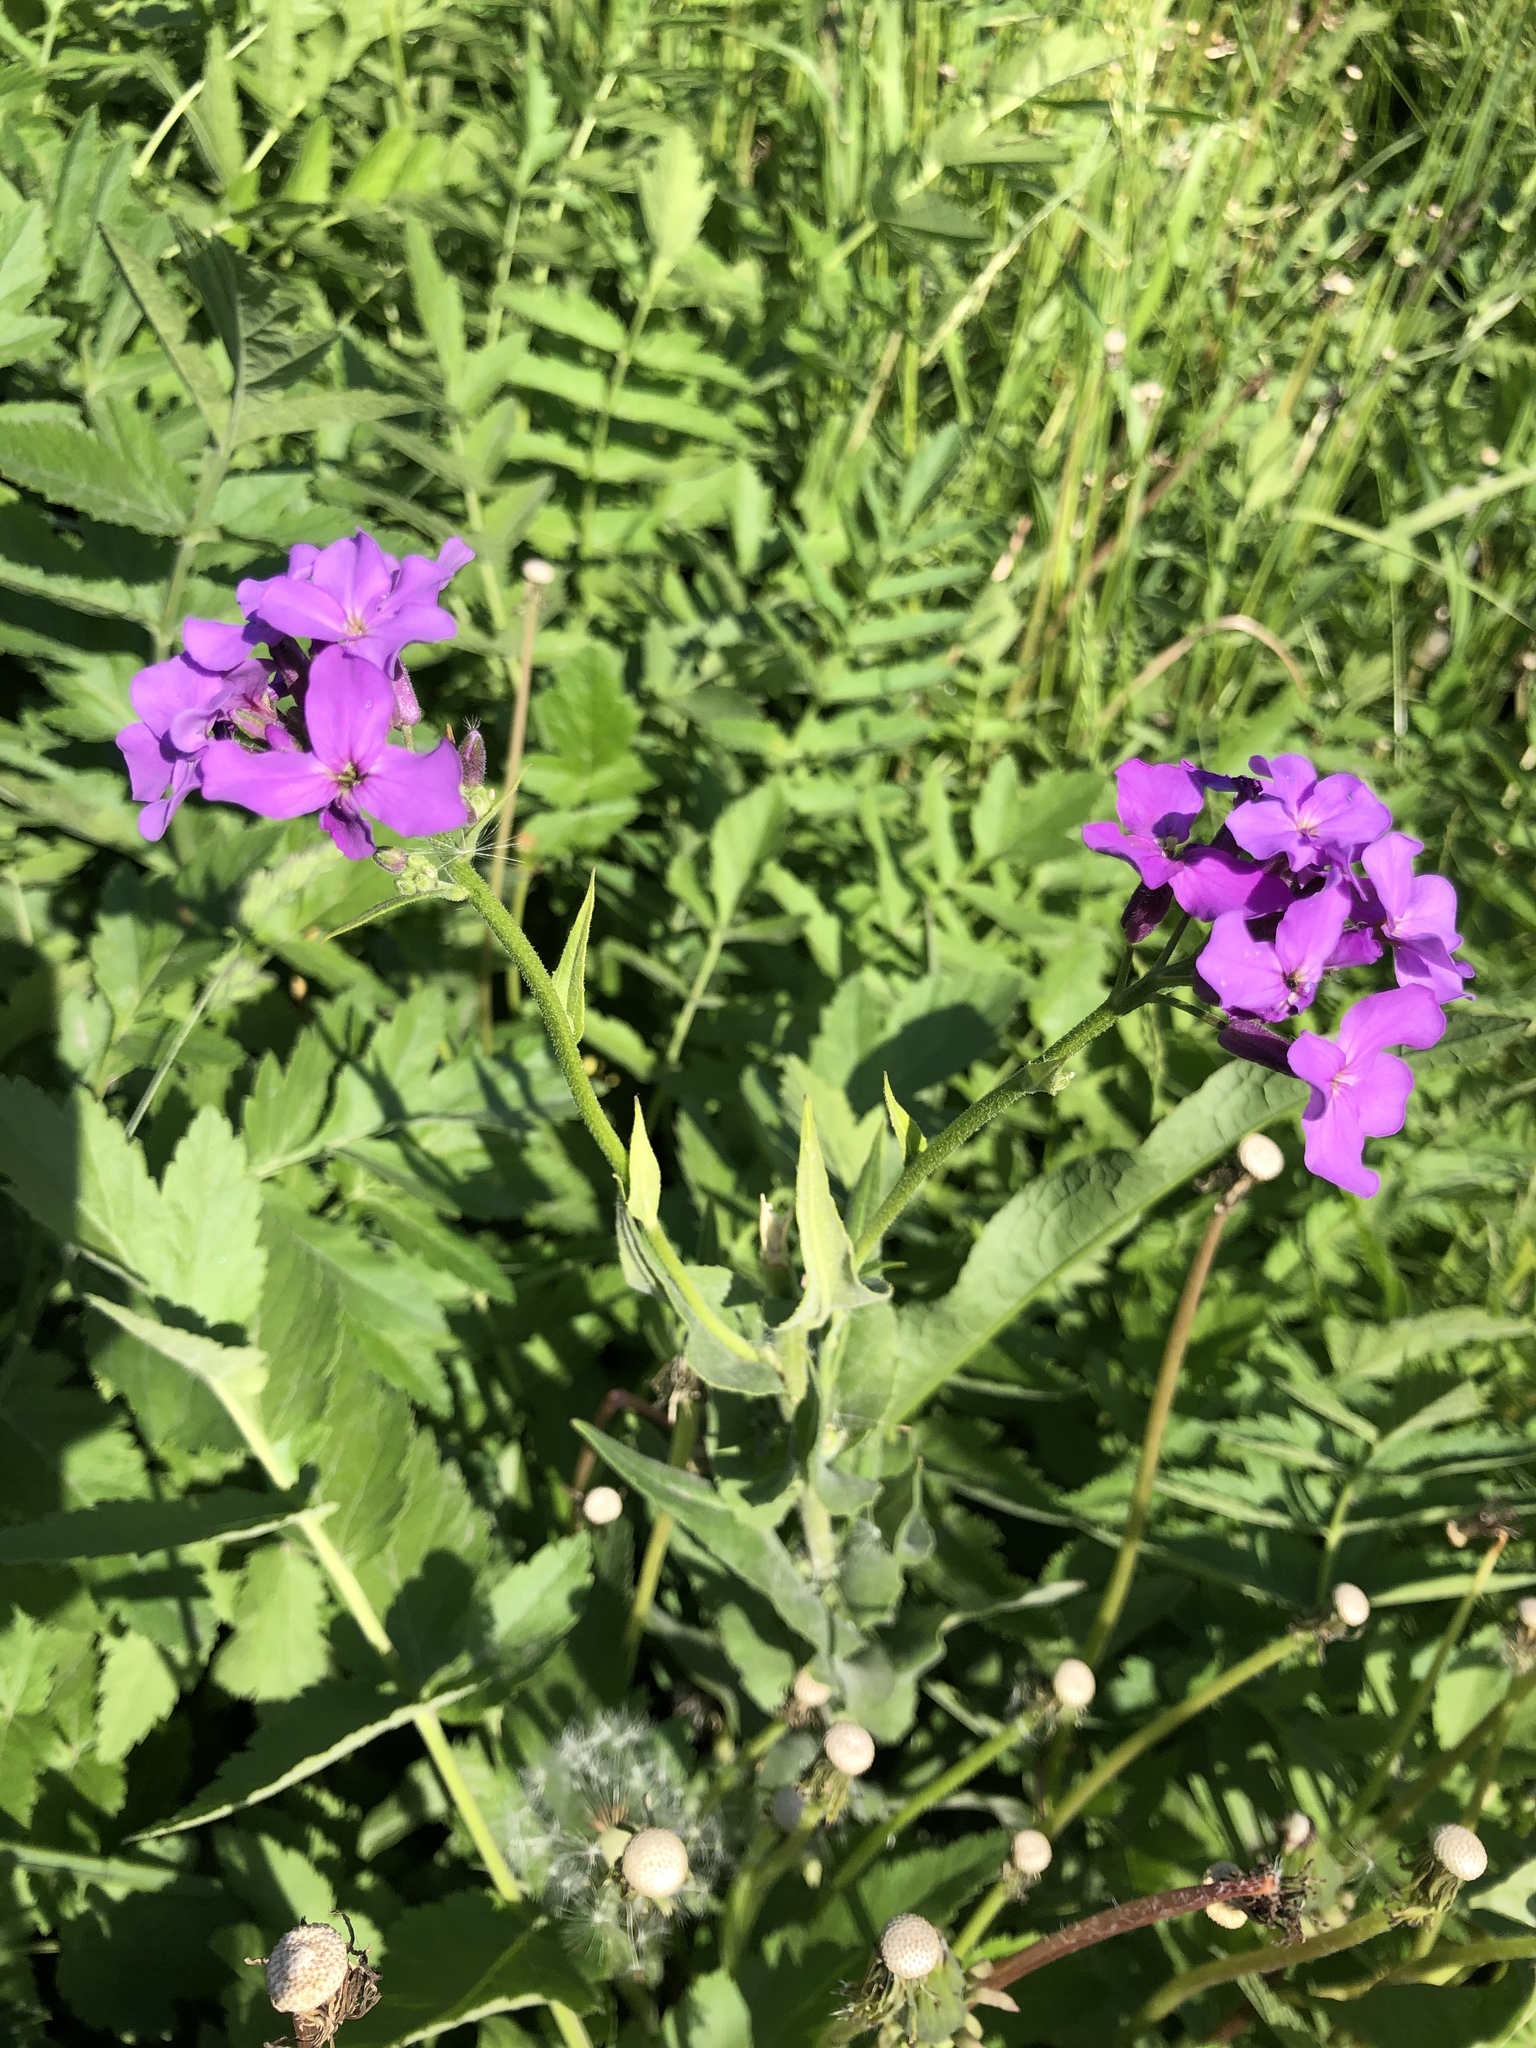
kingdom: Plantae
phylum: Tracheophyta
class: Magnoliopsida
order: Brassicales
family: Brassicaceae
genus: Hesperis
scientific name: Hesperis matronalis
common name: Dame's-violet
